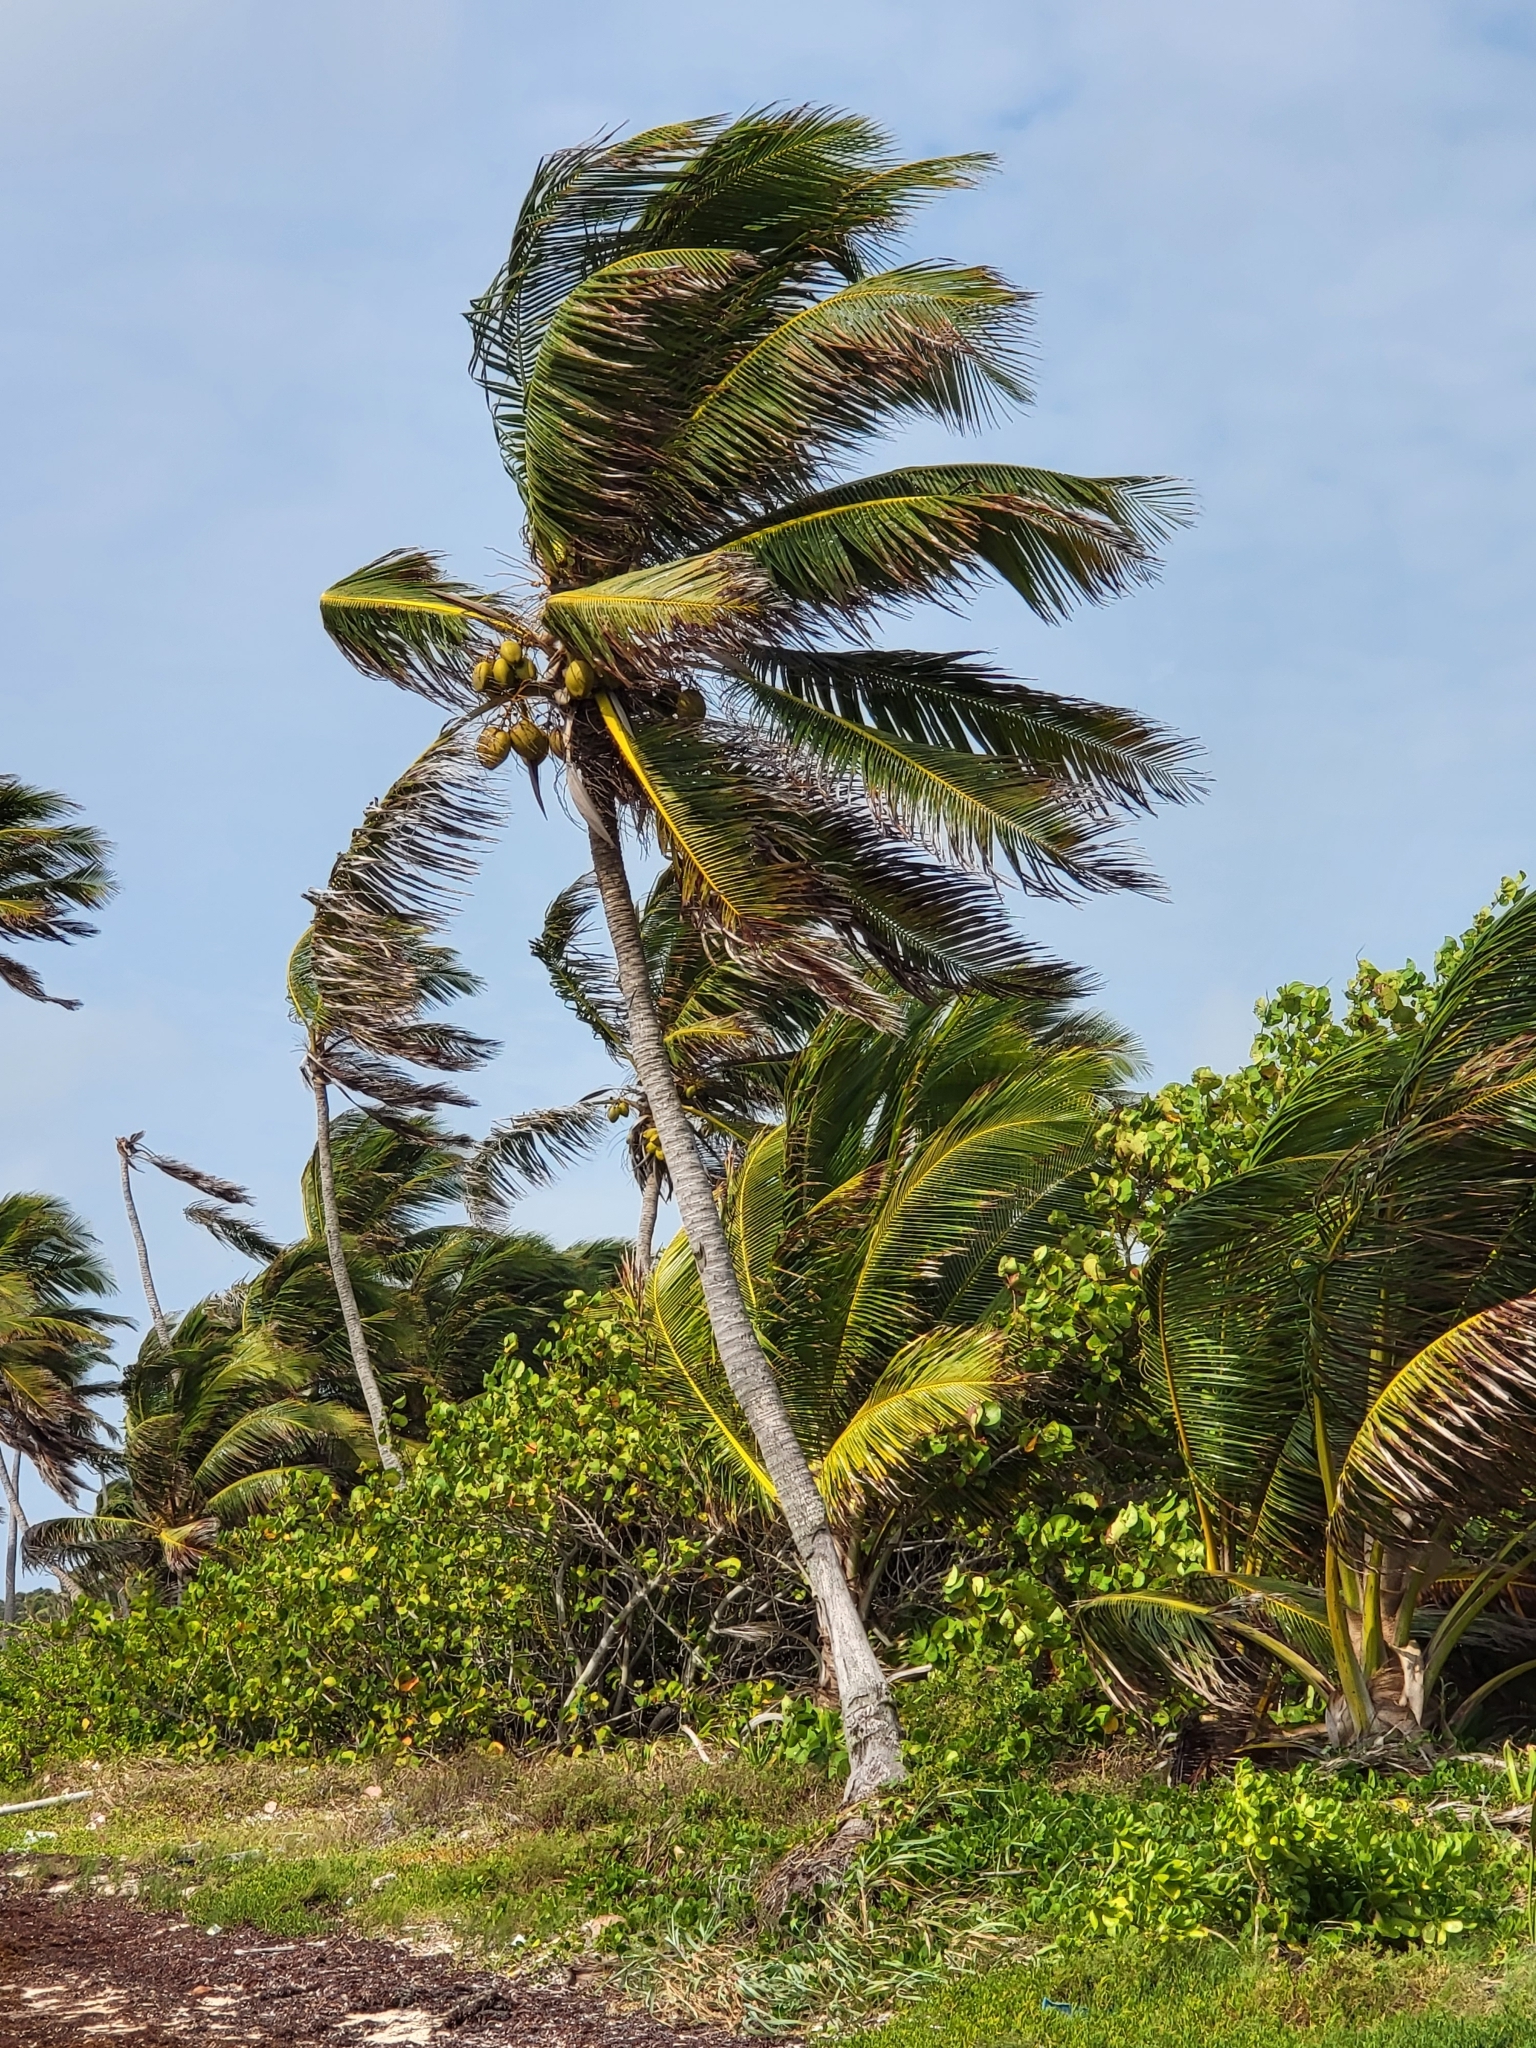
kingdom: Plantae
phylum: Tracheophyta
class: Liliopsida
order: Arecales
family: Arecaceae
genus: Cocos
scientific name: Cocos nucifera
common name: Coconut palm
